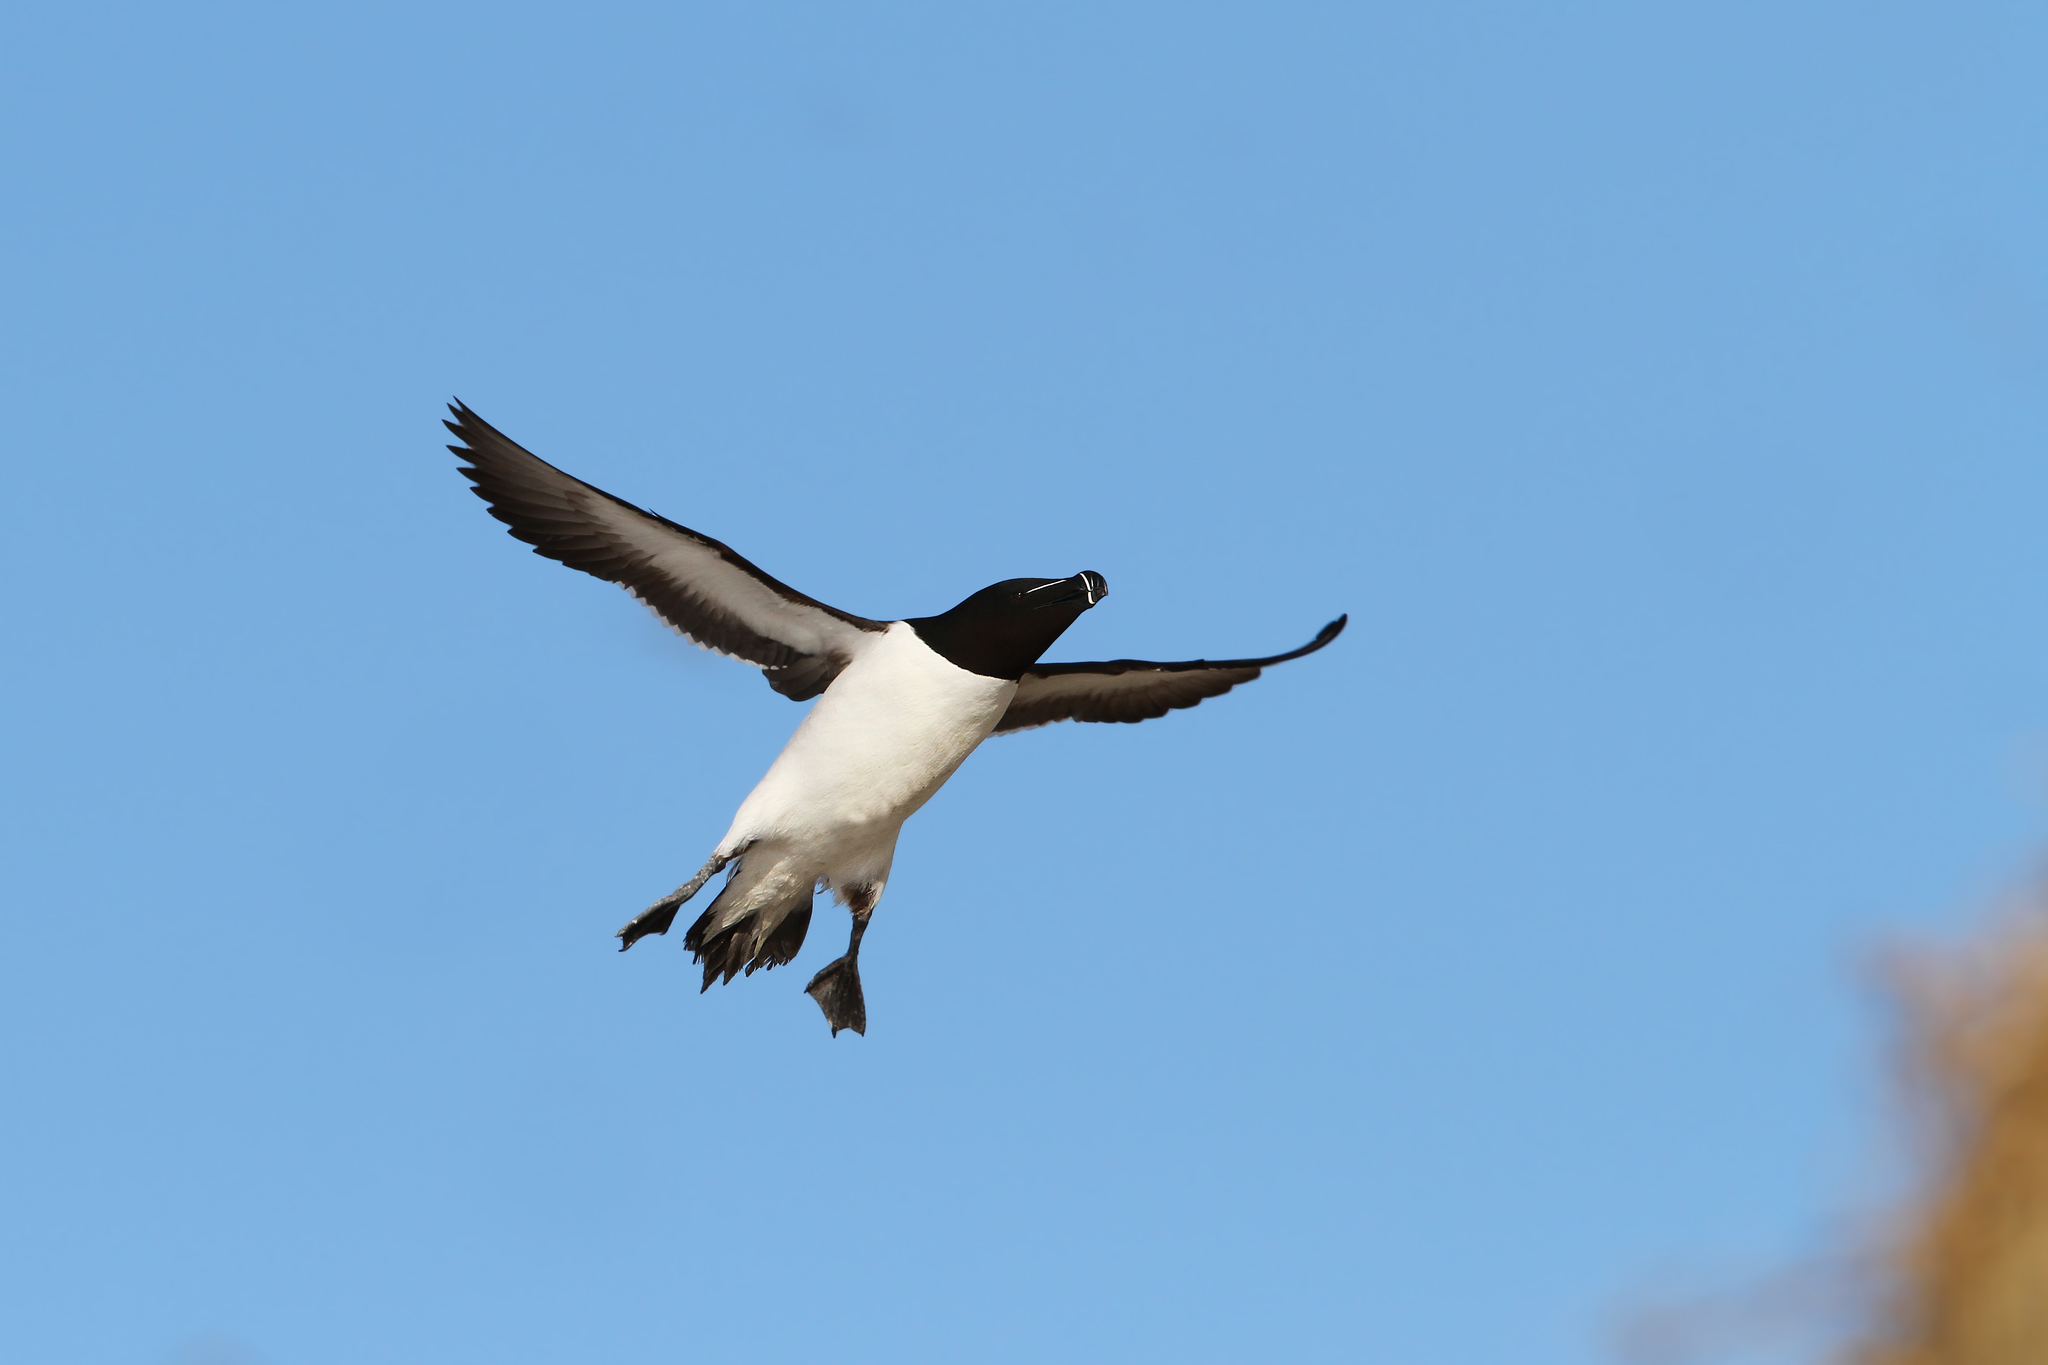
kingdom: Animalia
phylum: Chordata
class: Aves
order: Charadriiformes
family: Alcidae
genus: Alca
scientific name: Alca torda
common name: Razorbill
